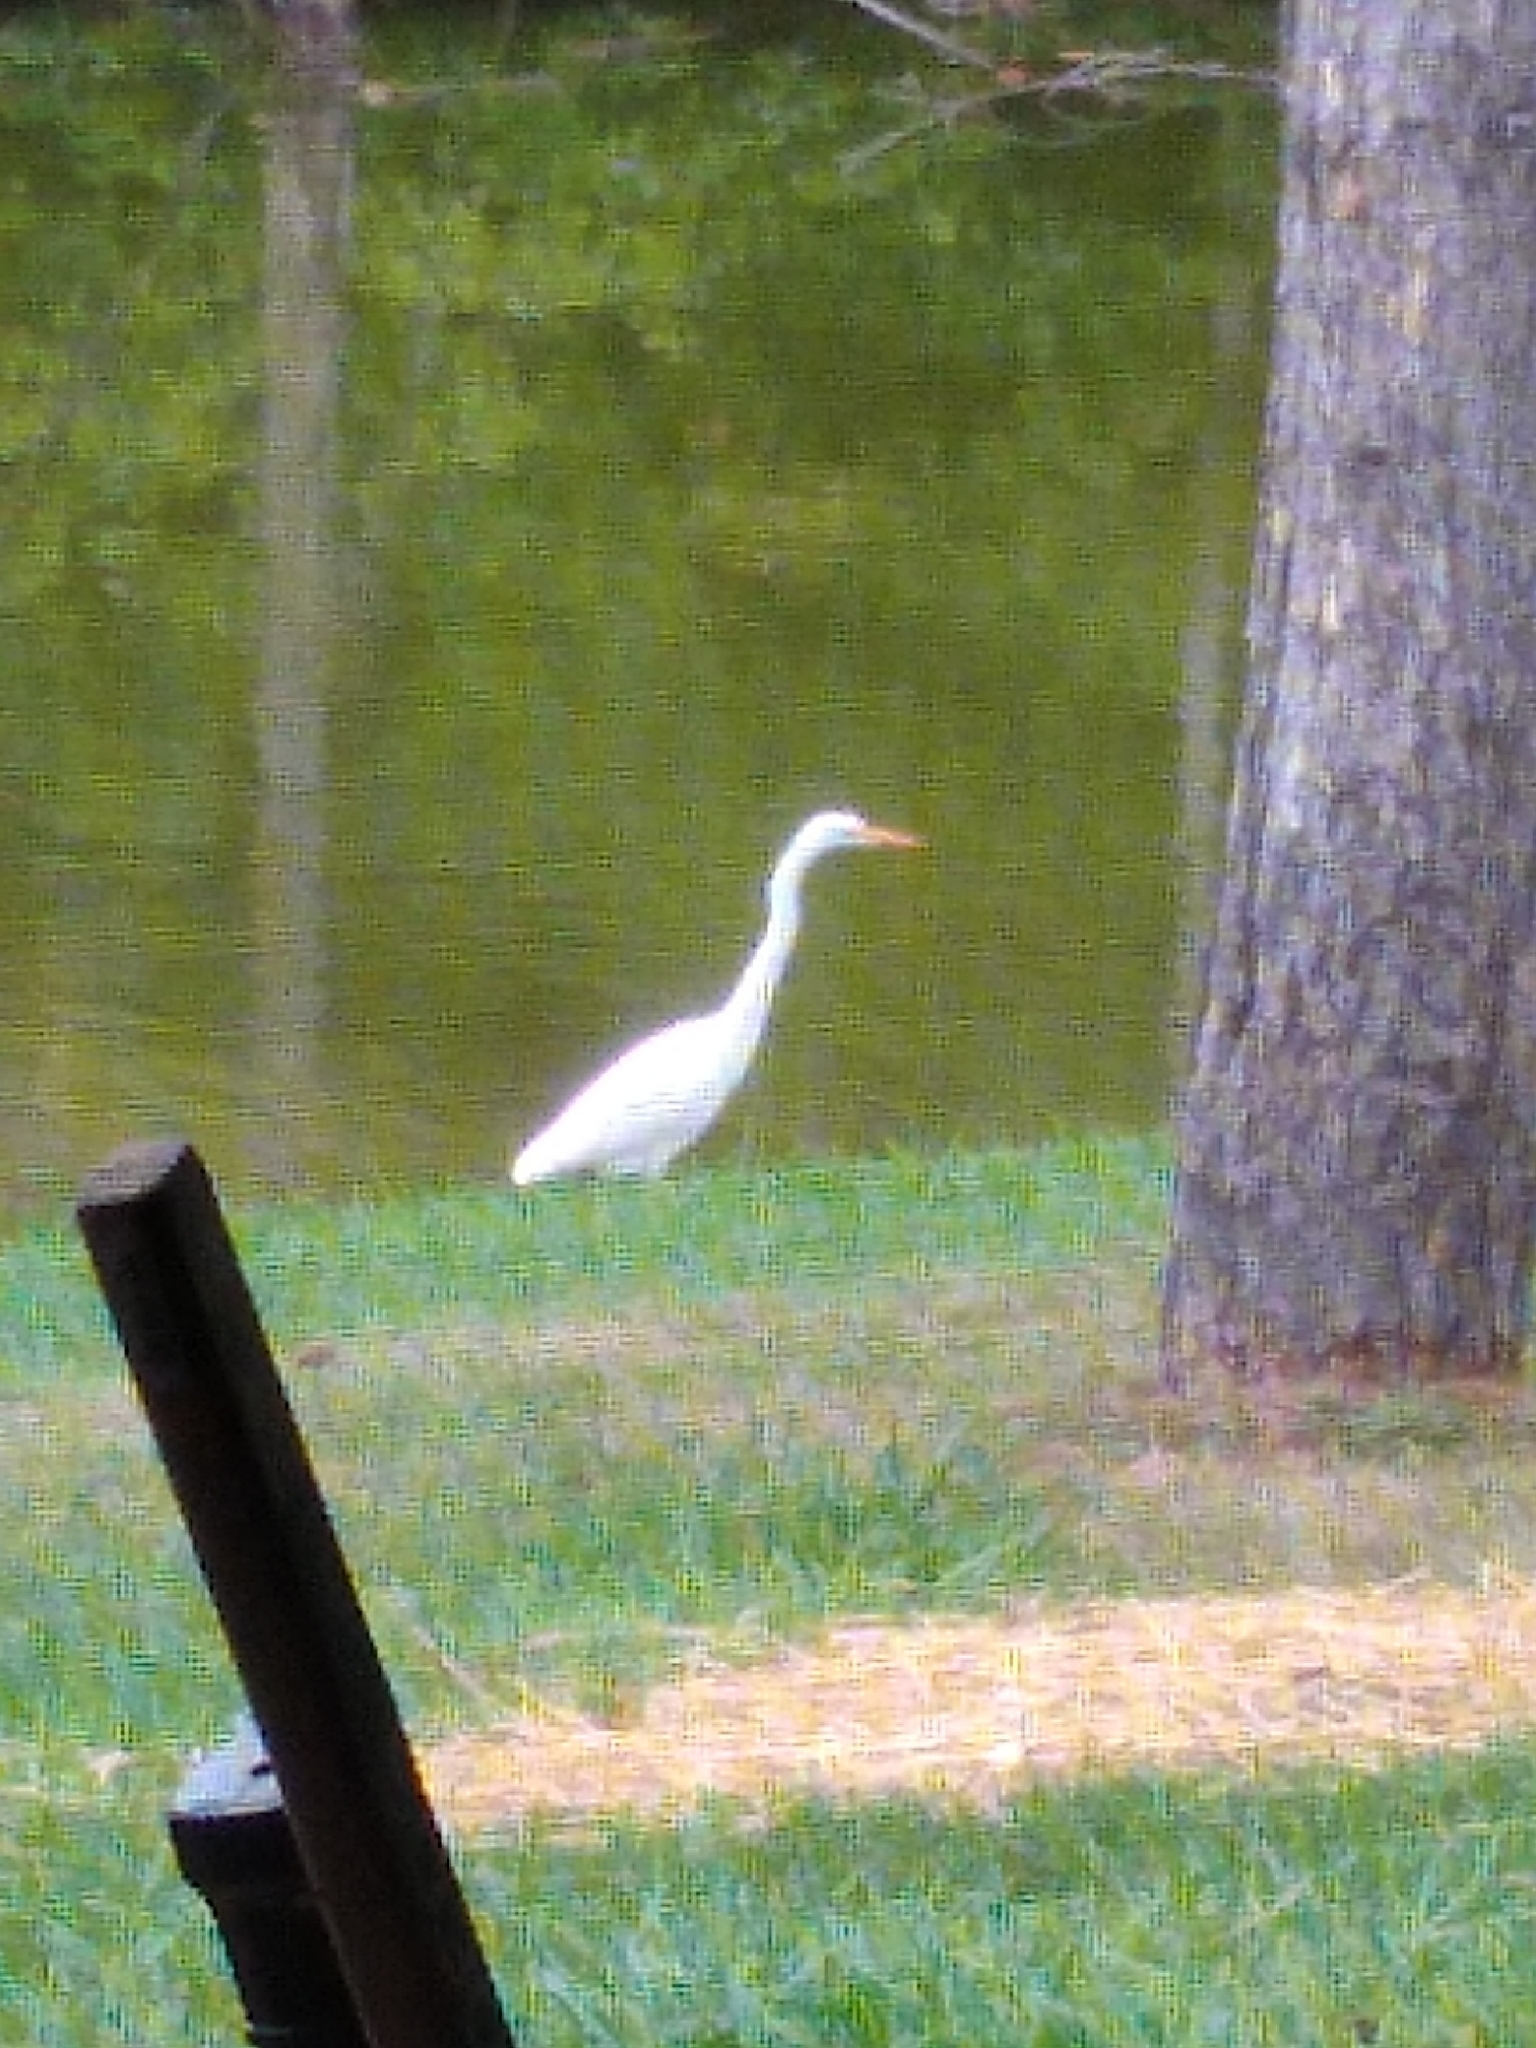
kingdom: Animalia
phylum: Chordata
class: Aves
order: Pelecaniformes
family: Ardeidae
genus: Ardea
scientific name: Ardea alba
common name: Great egret
